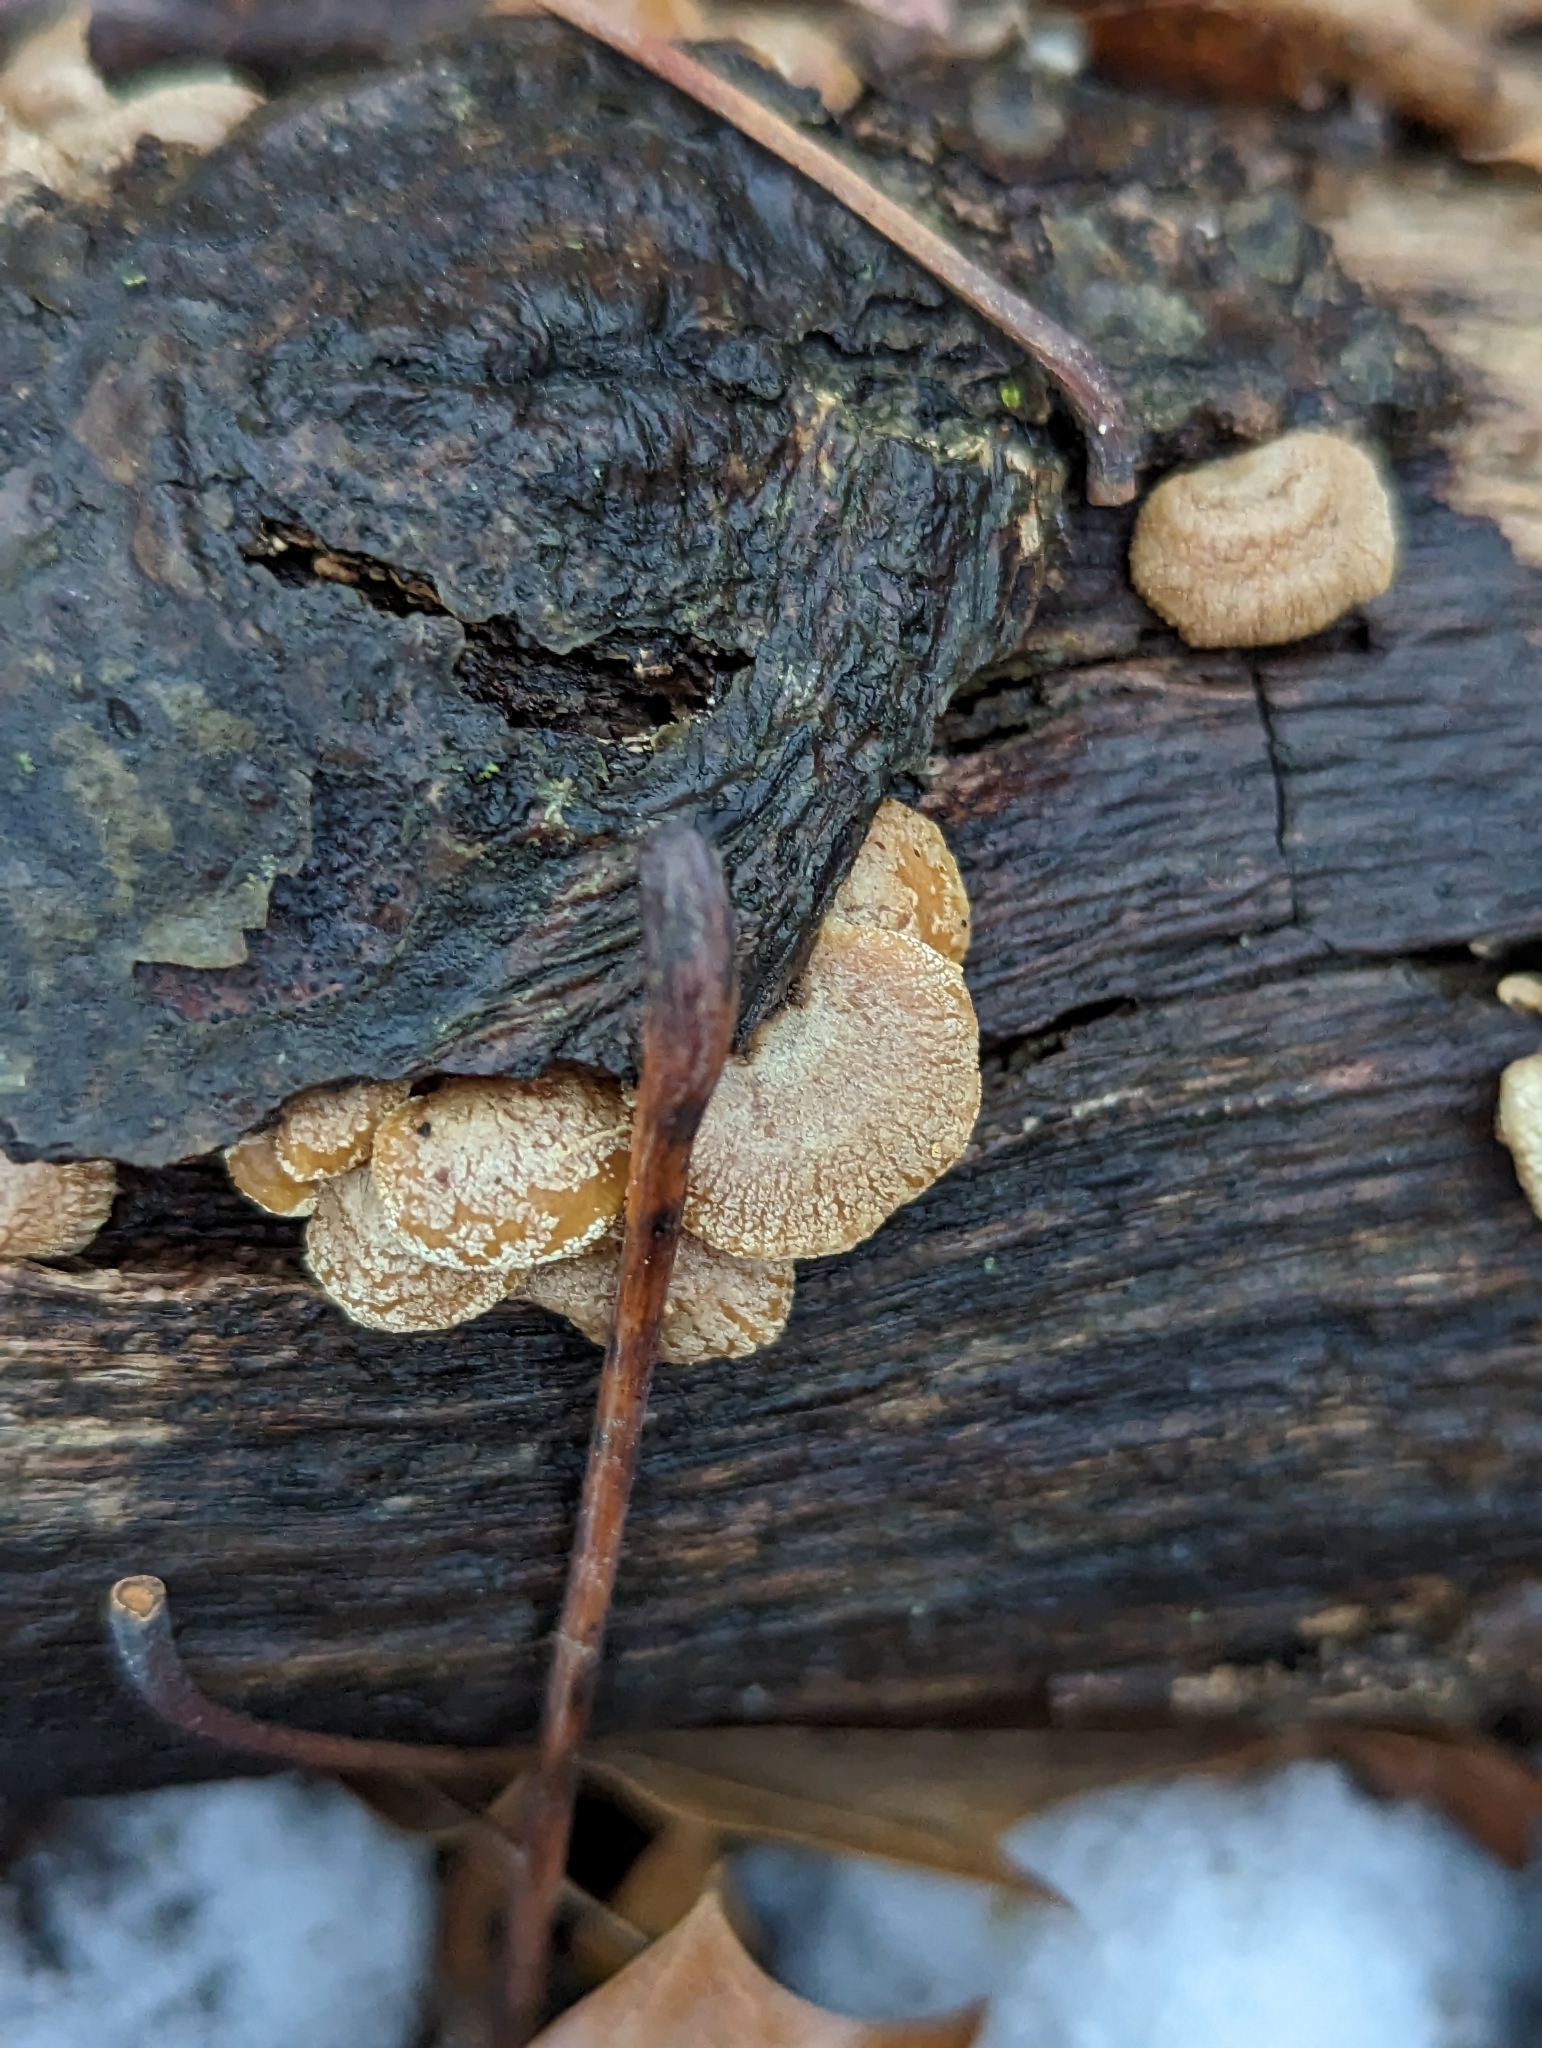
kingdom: Fungi
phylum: Basidiomycota
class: Agaricomycetes
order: Agaricales
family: Mycenaceae
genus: Panellus
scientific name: Panellus stipticus
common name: Bitter oysterling
